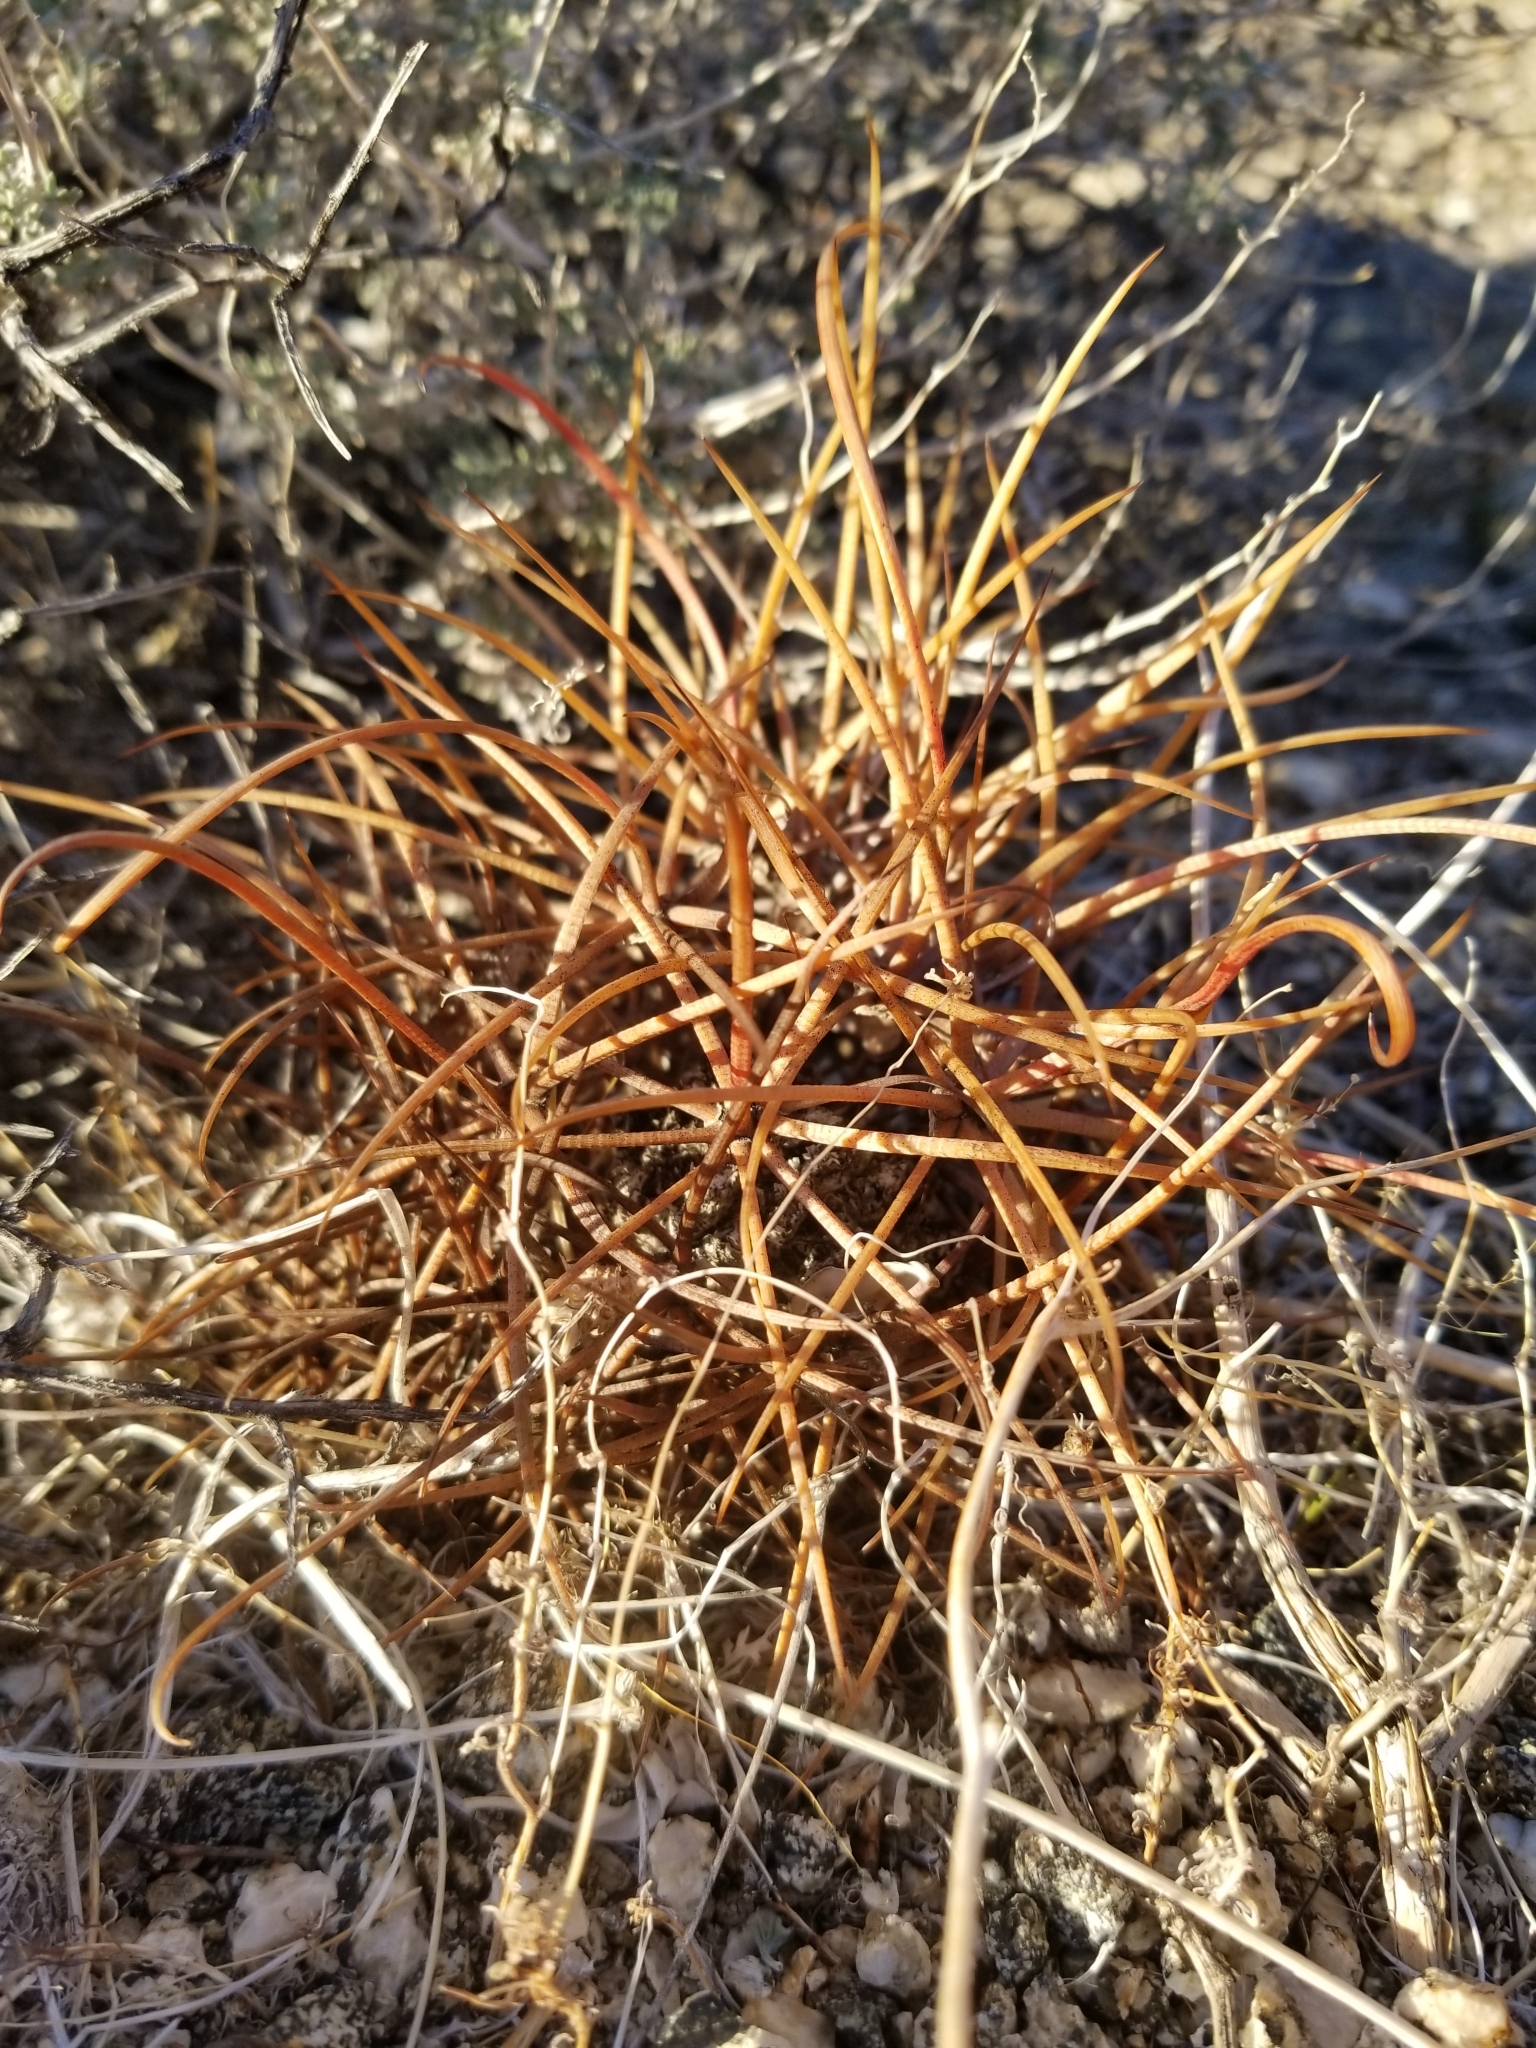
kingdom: Plantae
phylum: Tracheophyta
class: Magnoliopsida
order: Caryophyllales
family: Cactaceae
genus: Ferocactus
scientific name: Ferocactus cylindraceus
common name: California barrel cactus
